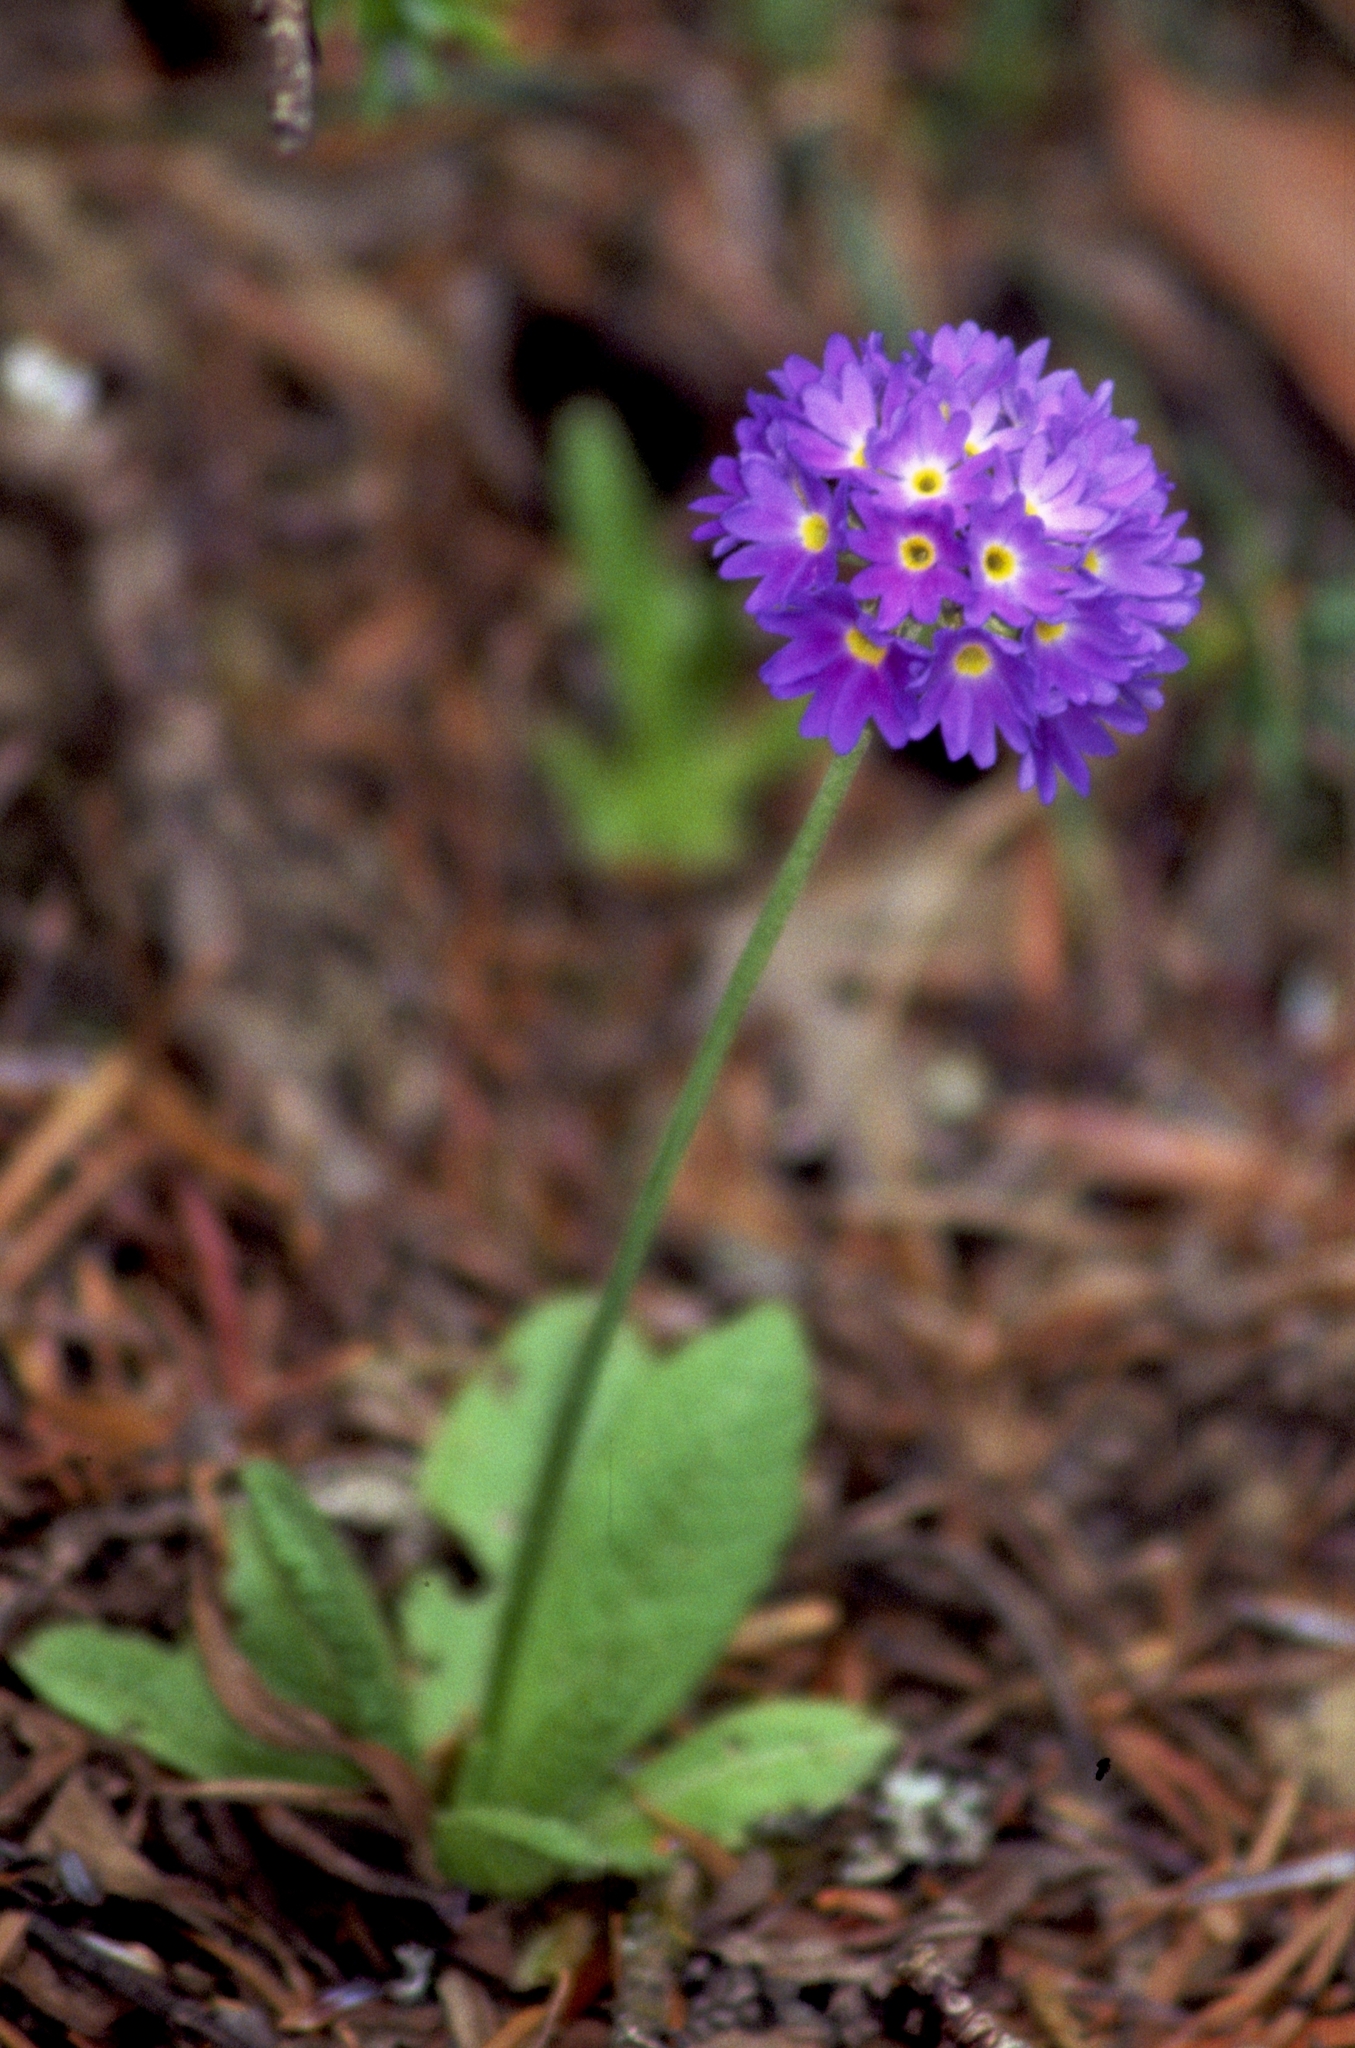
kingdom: Plantae
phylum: Tracheophyta
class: Magnoliopsida
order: Ericales
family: Primulaceae
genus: Primula
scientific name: Primula denticulata
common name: Drumstick primula
